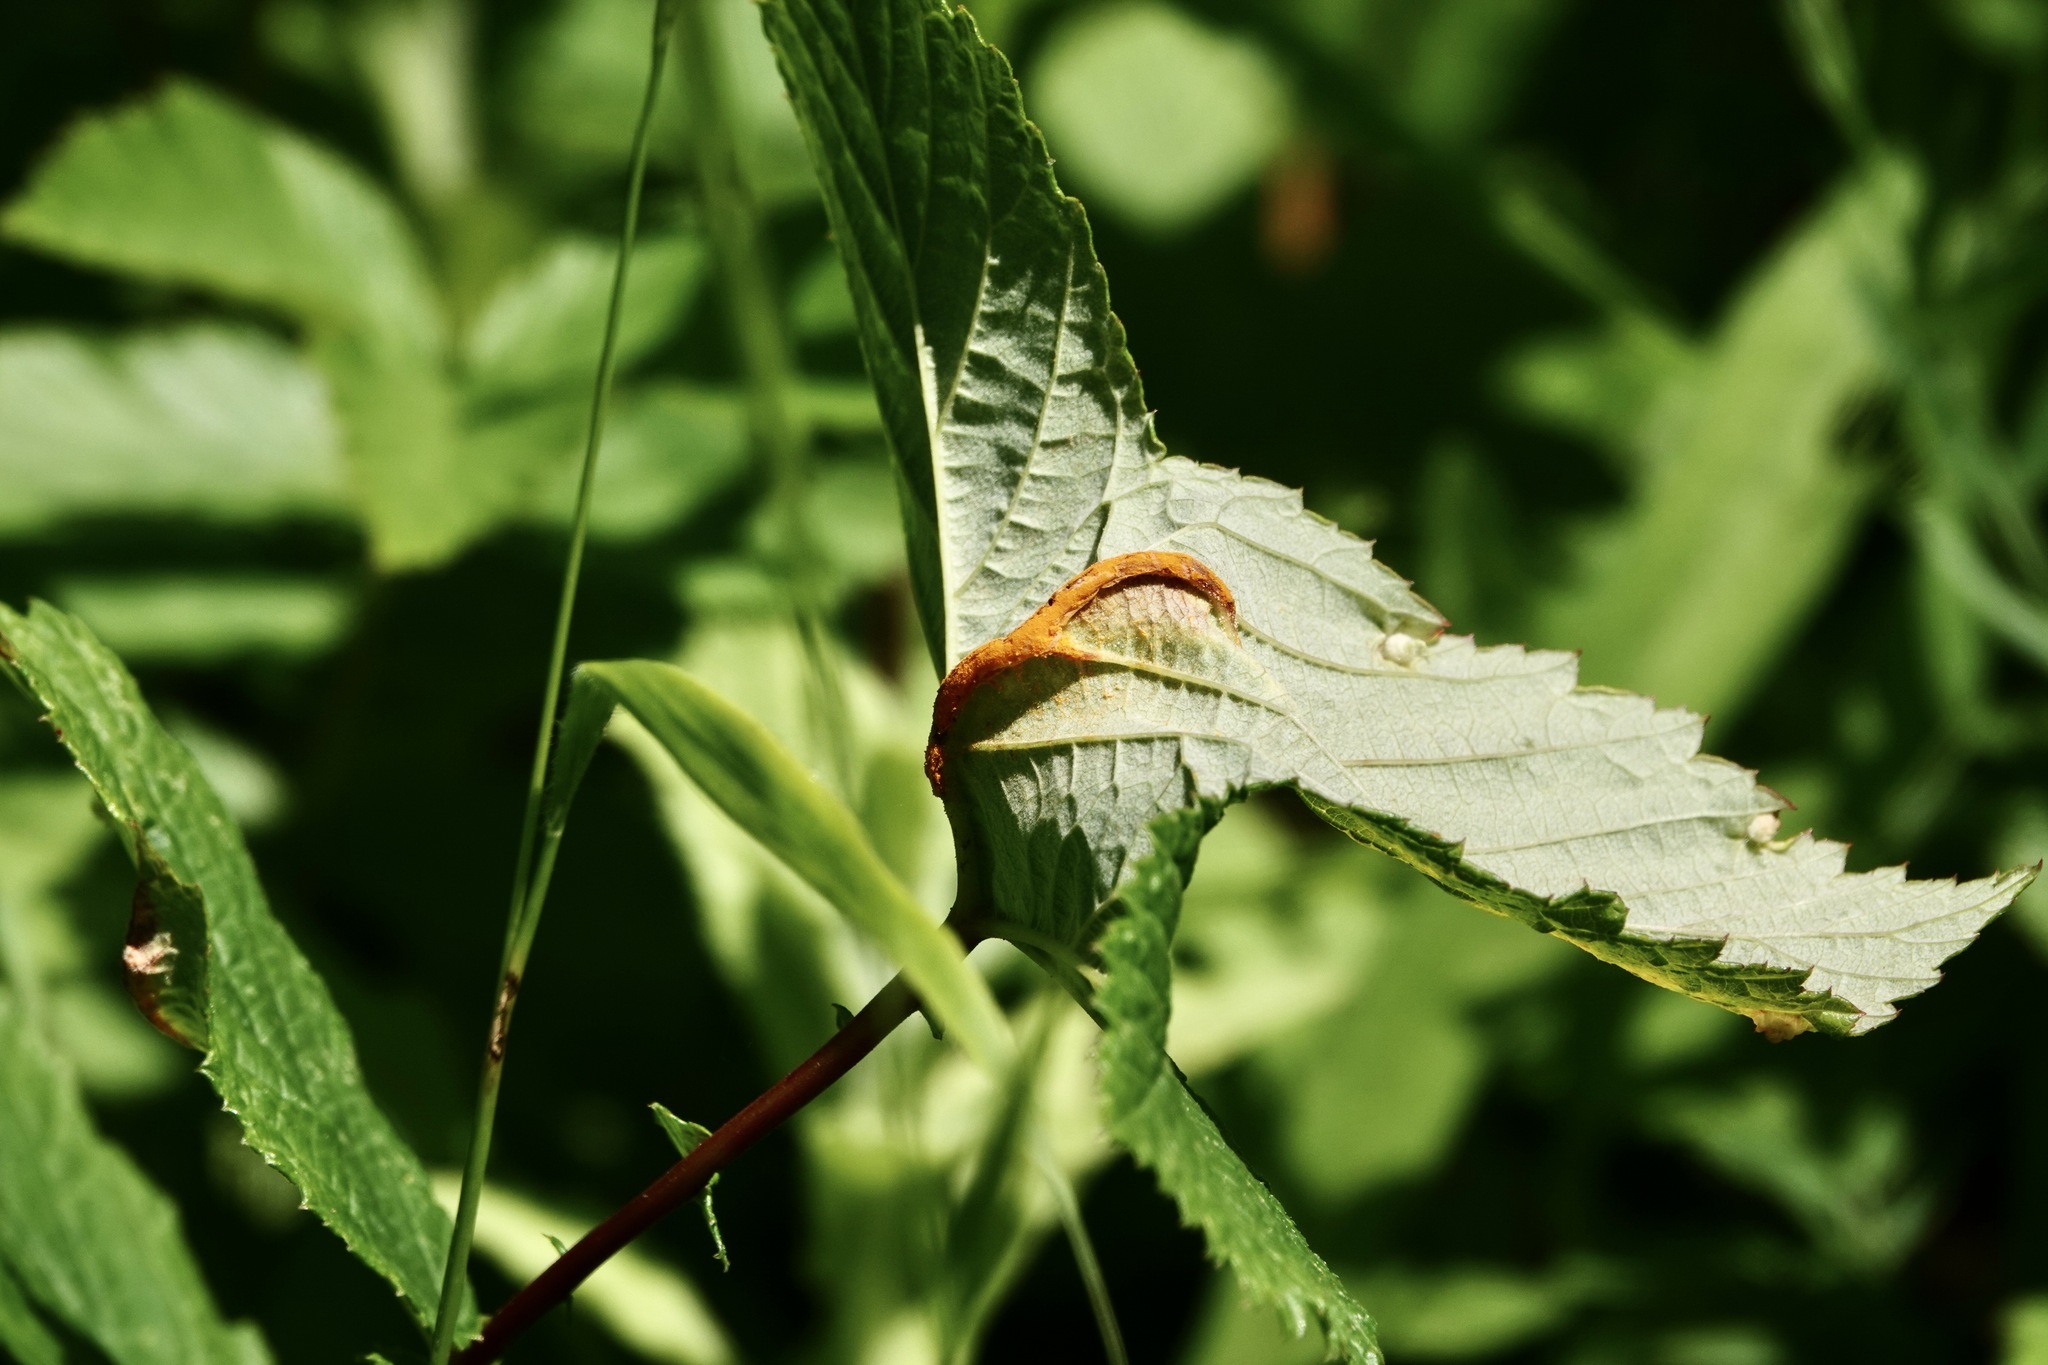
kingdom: Fungi
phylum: Basidiomycota
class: Pucciniomycetes
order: Pucciniales
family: Raveneliaceae
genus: Triphragmium
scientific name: Triphragmium ulmariae
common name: Meadowsweet rust
